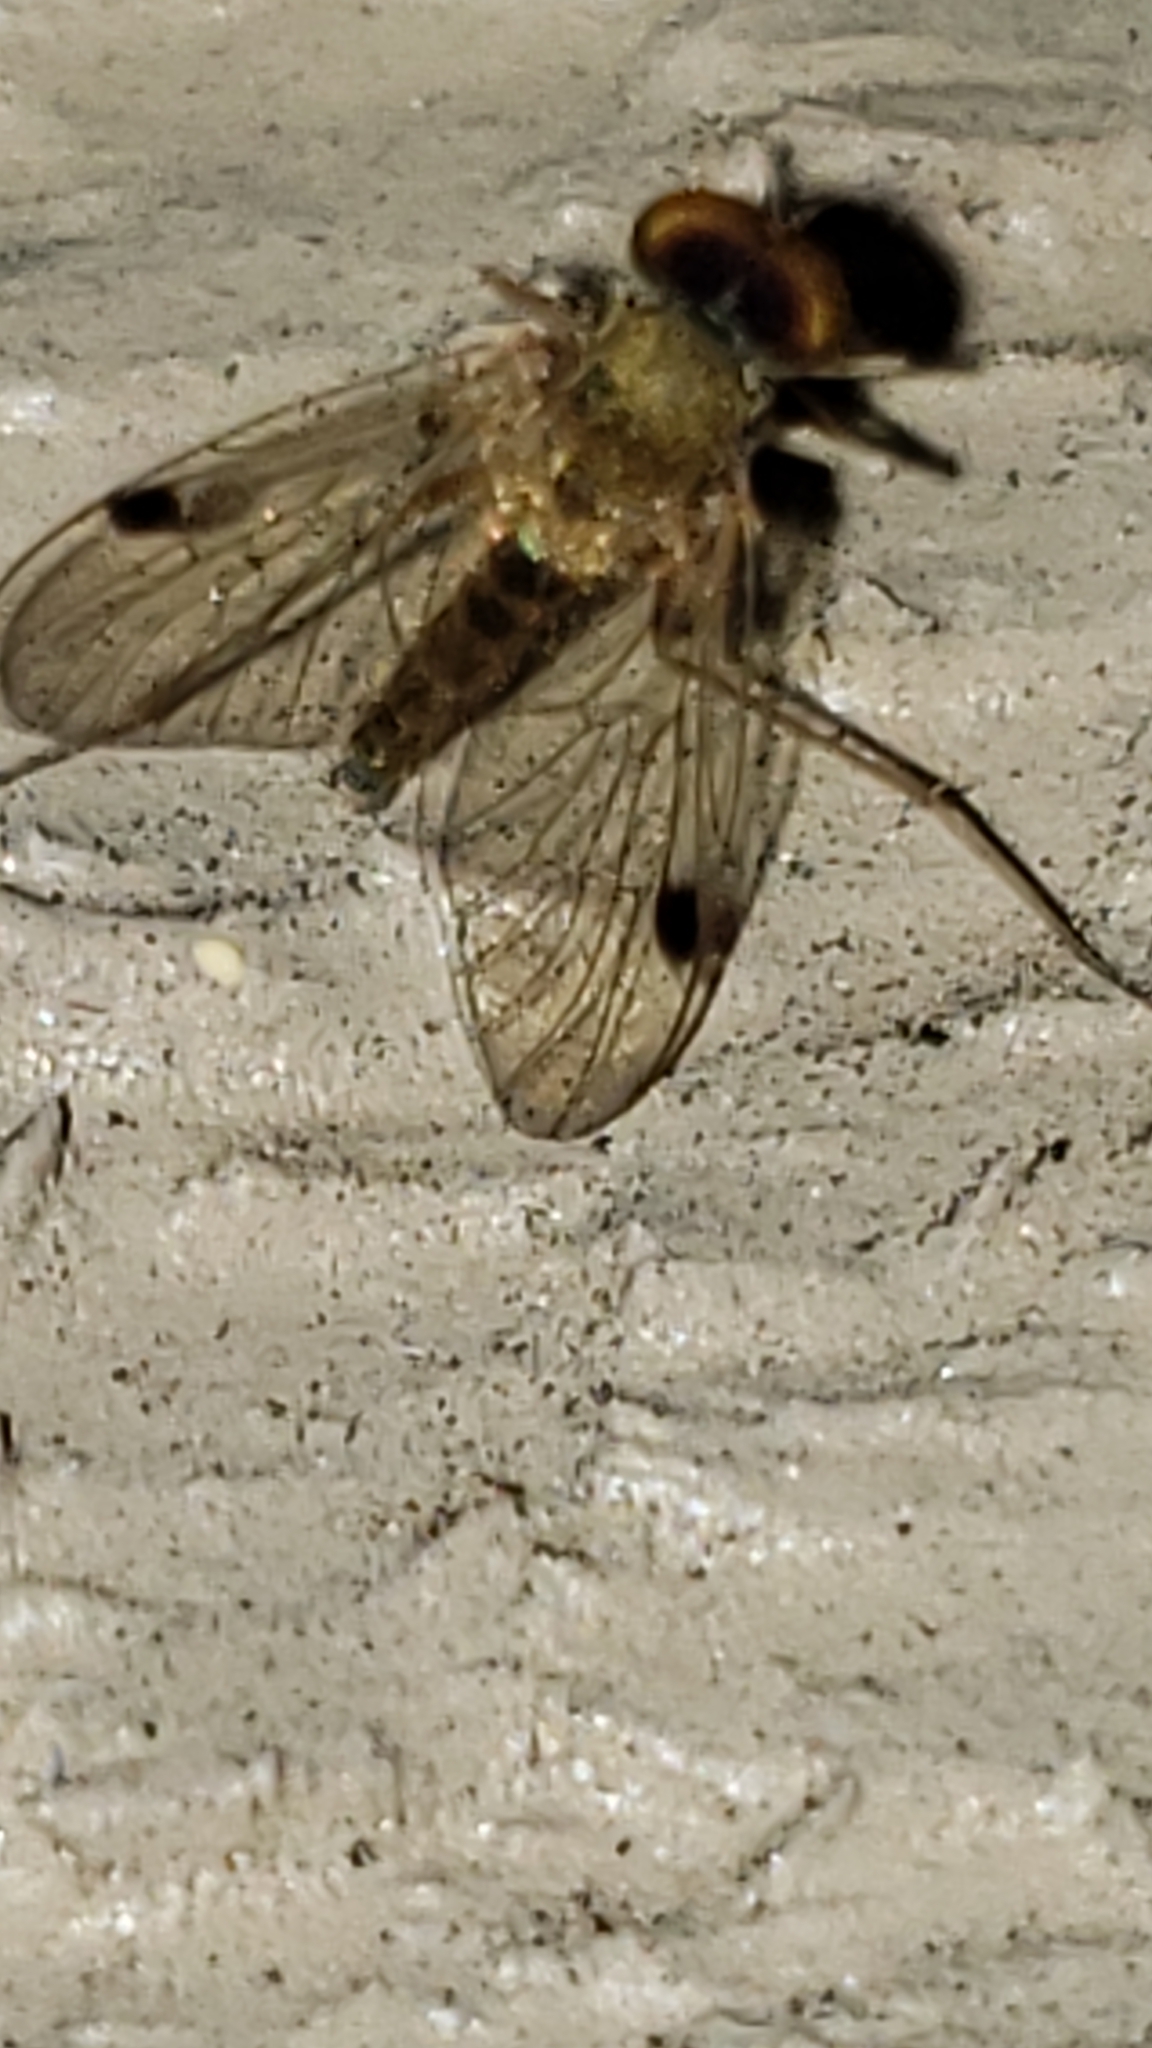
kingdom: Animalia
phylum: Arthropoda
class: Insecta
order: Diptera
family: Rhagionidae
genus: Chrysopilus
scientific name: Chrysopilus modestus
